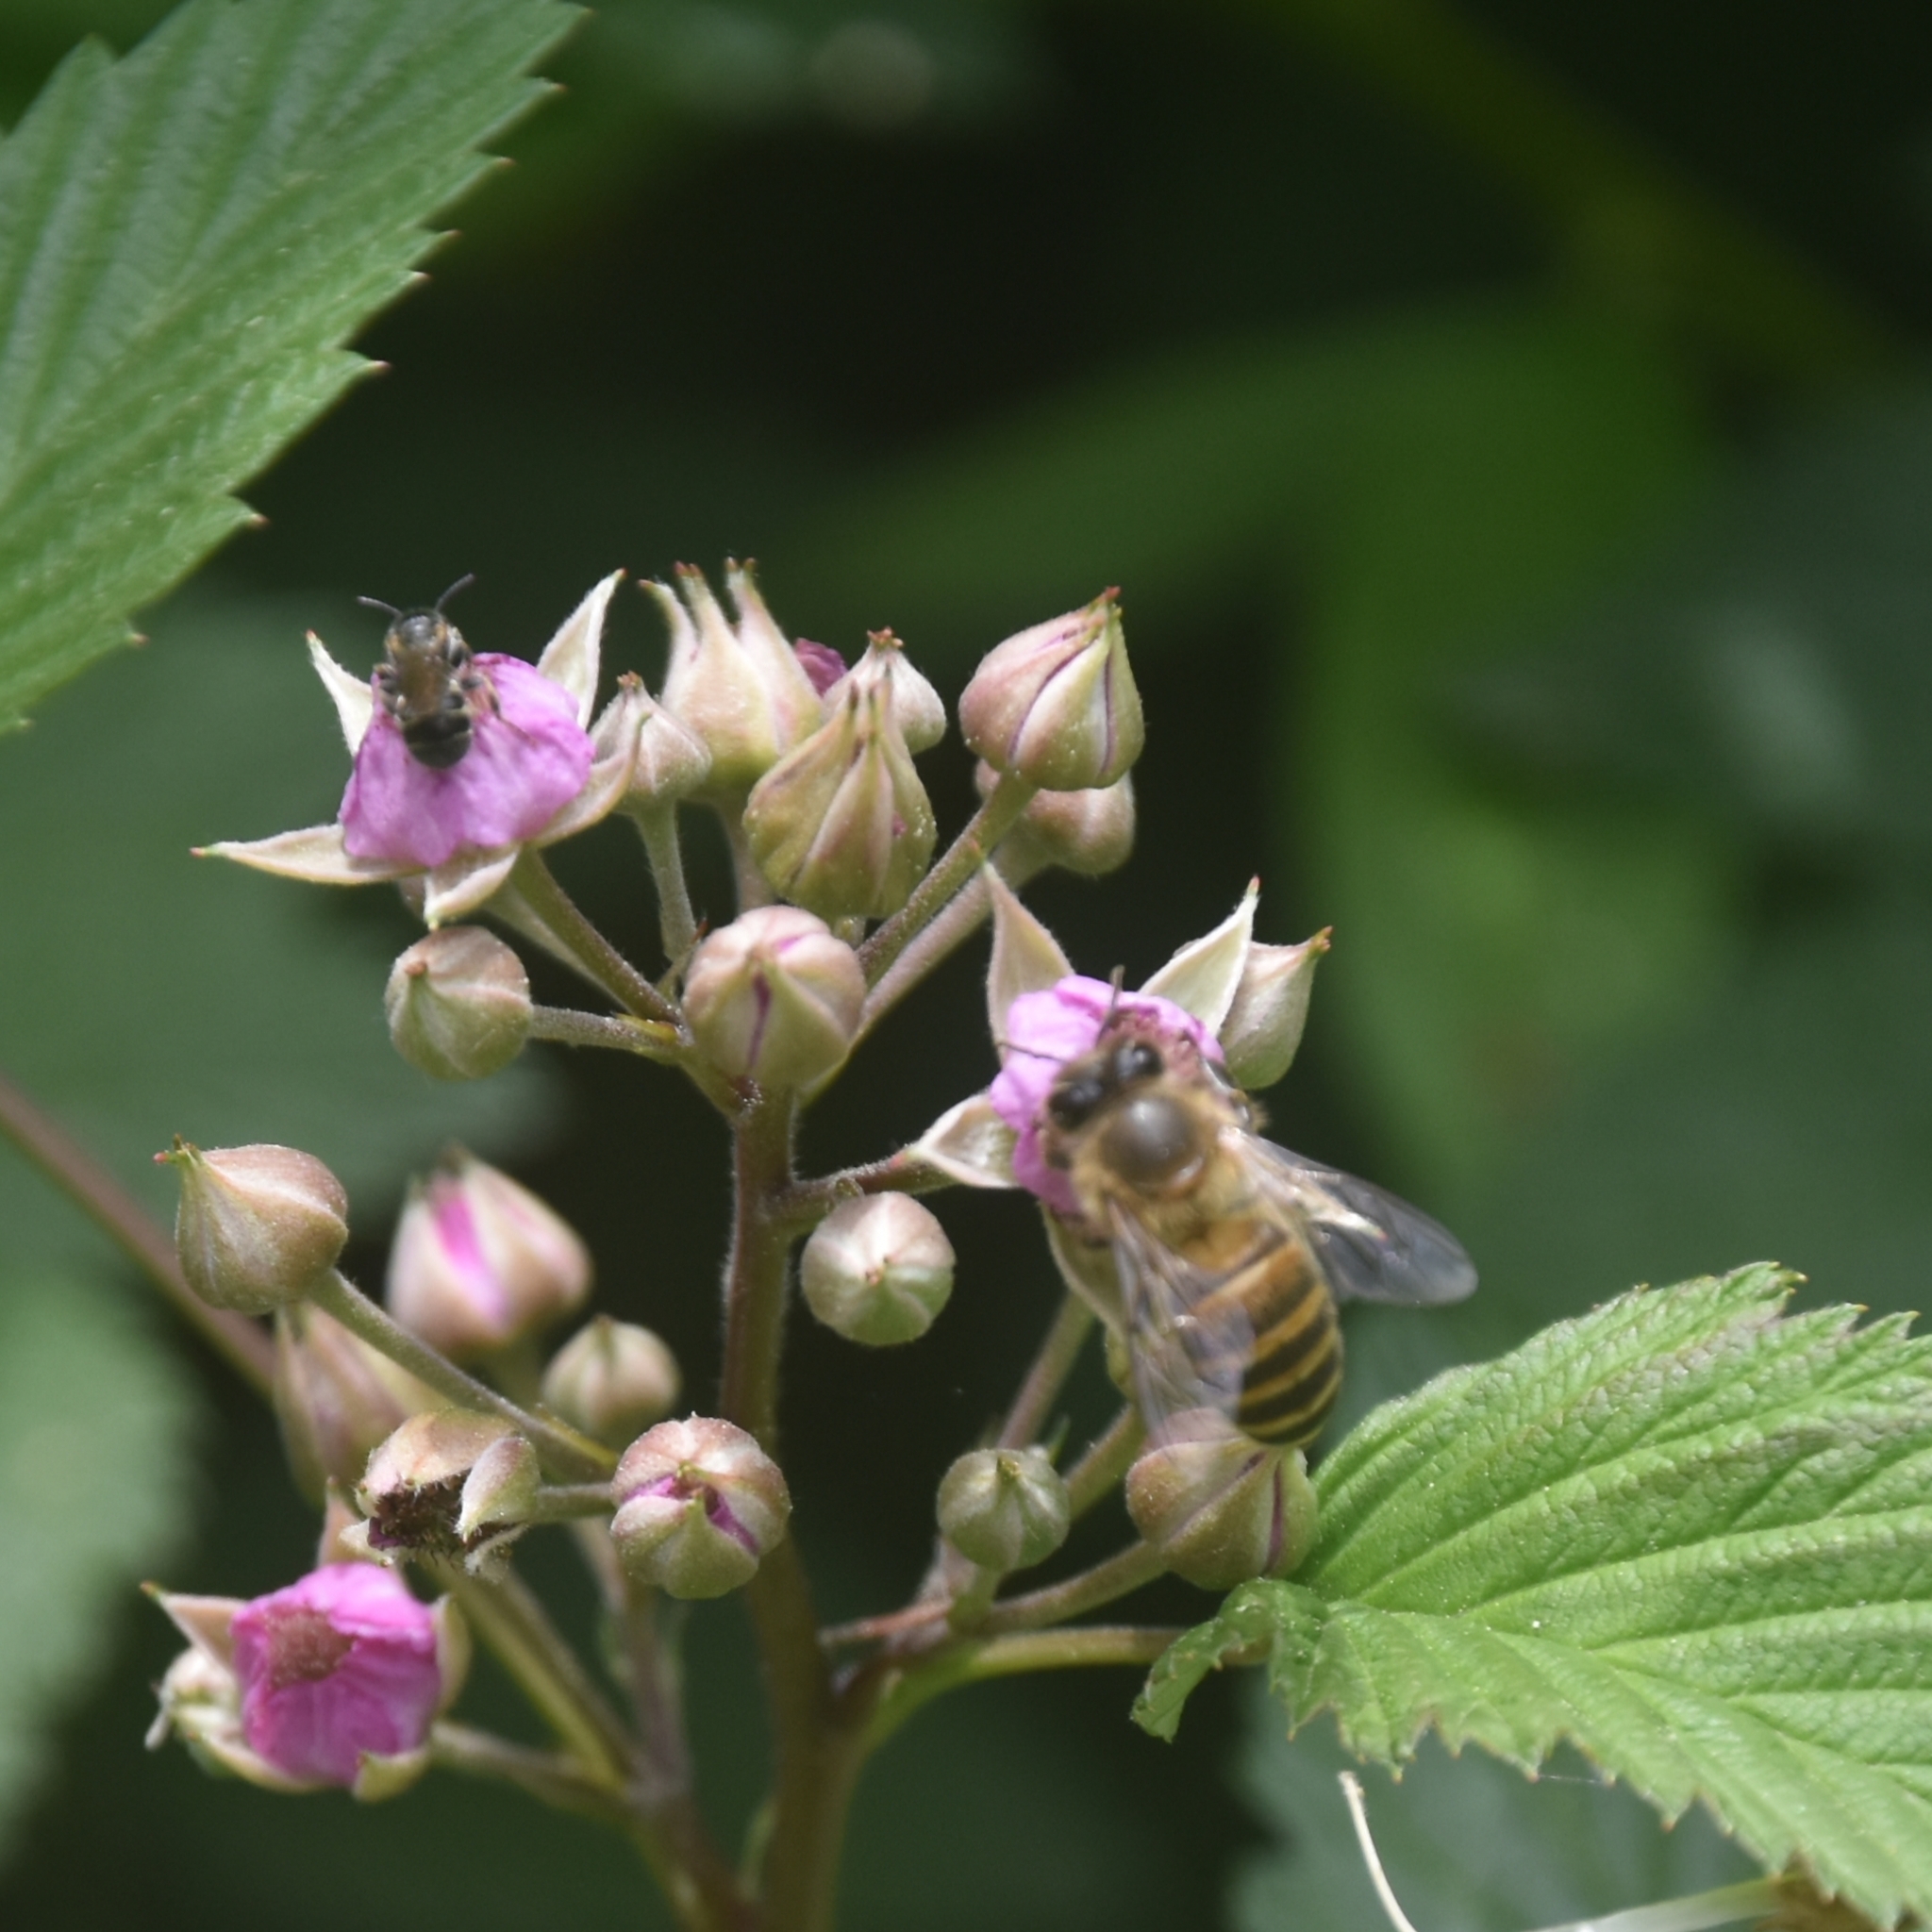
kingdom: Animalia
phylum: Arthropoda
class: Insecta
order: Hymenoptera
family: Apidae
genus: Apis
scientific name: Apis cerana
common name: Honey bee
